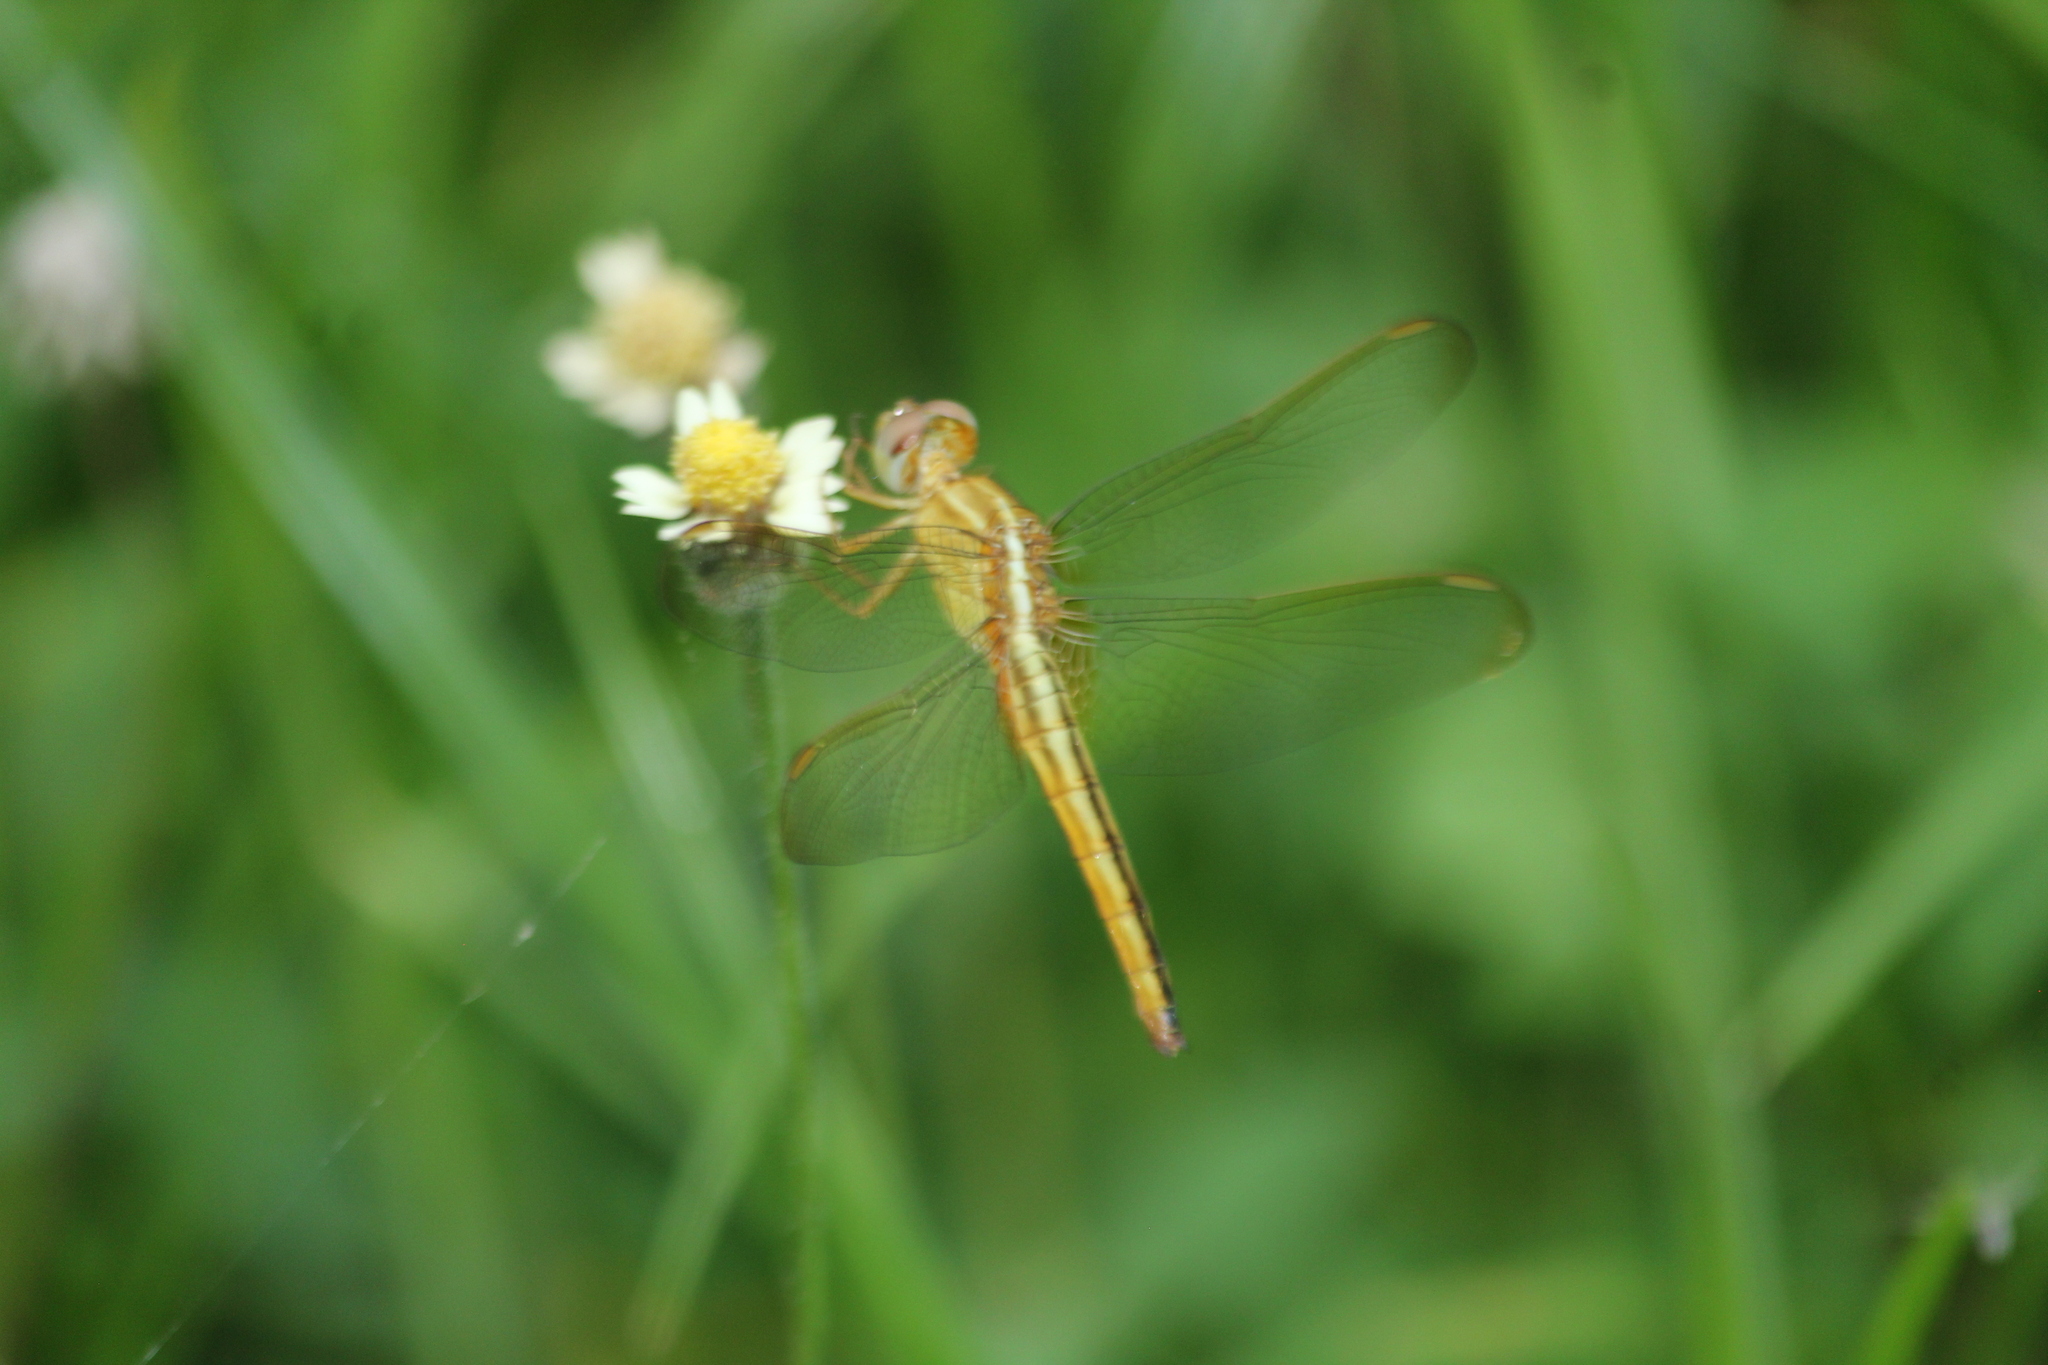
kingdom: Animalia
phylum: Arthropoda
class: Insecta
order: Odonata
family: Libellulidae
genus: Crocothemis
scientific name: Crocothemis servilia
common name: Scarlet skimmer
